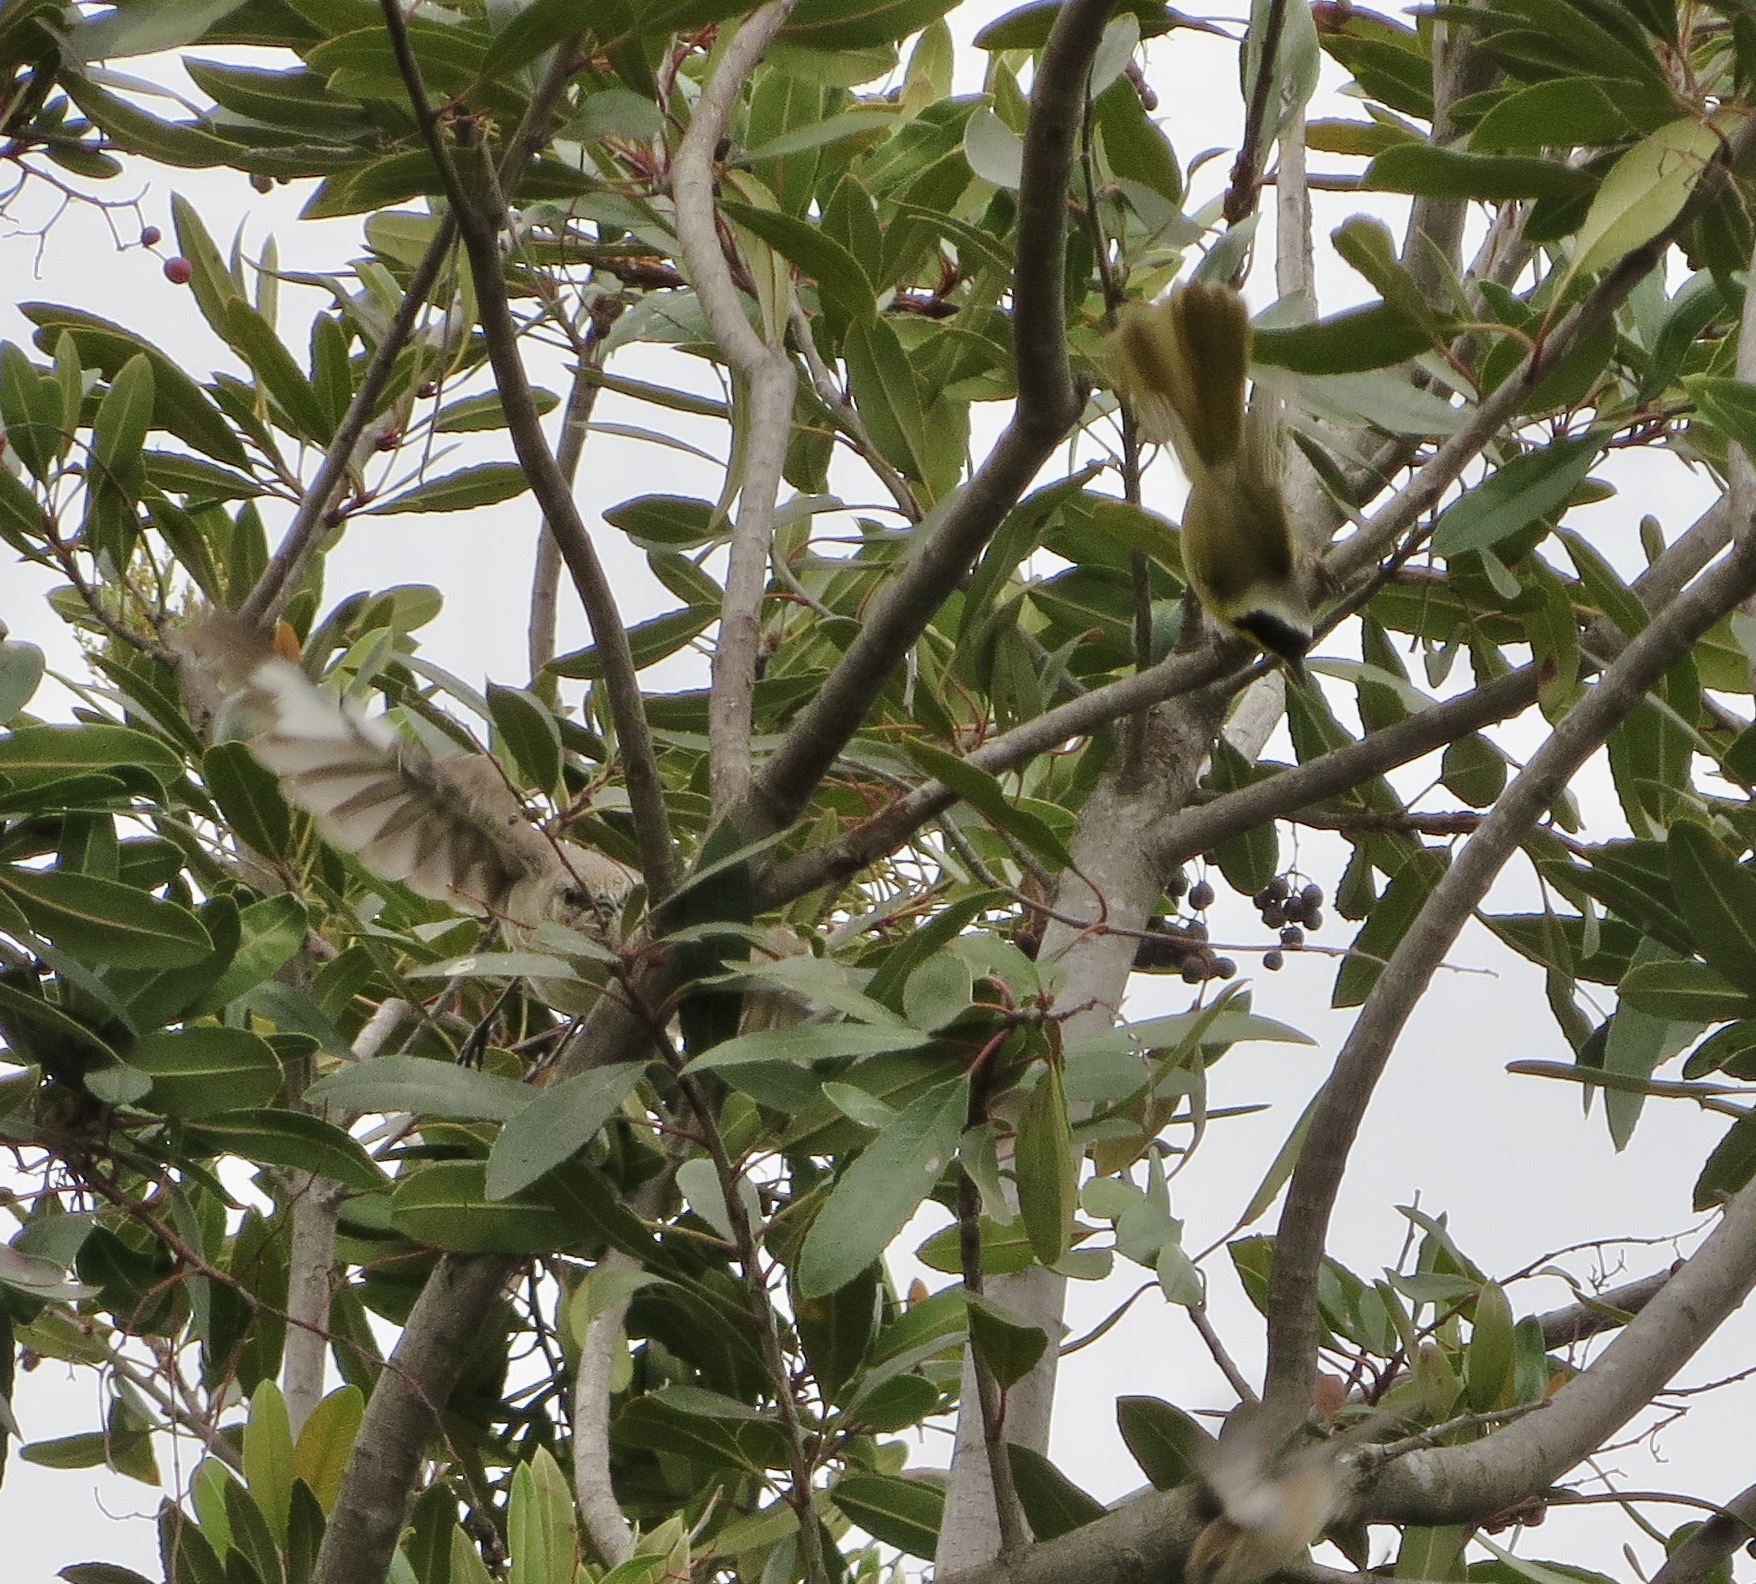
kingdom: Animalia
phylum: Chordata
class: Aves
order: Passeriformes
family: Parulidae
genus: Geothlypis
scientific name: Geothlypis trichas
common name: Common yellowthroat
